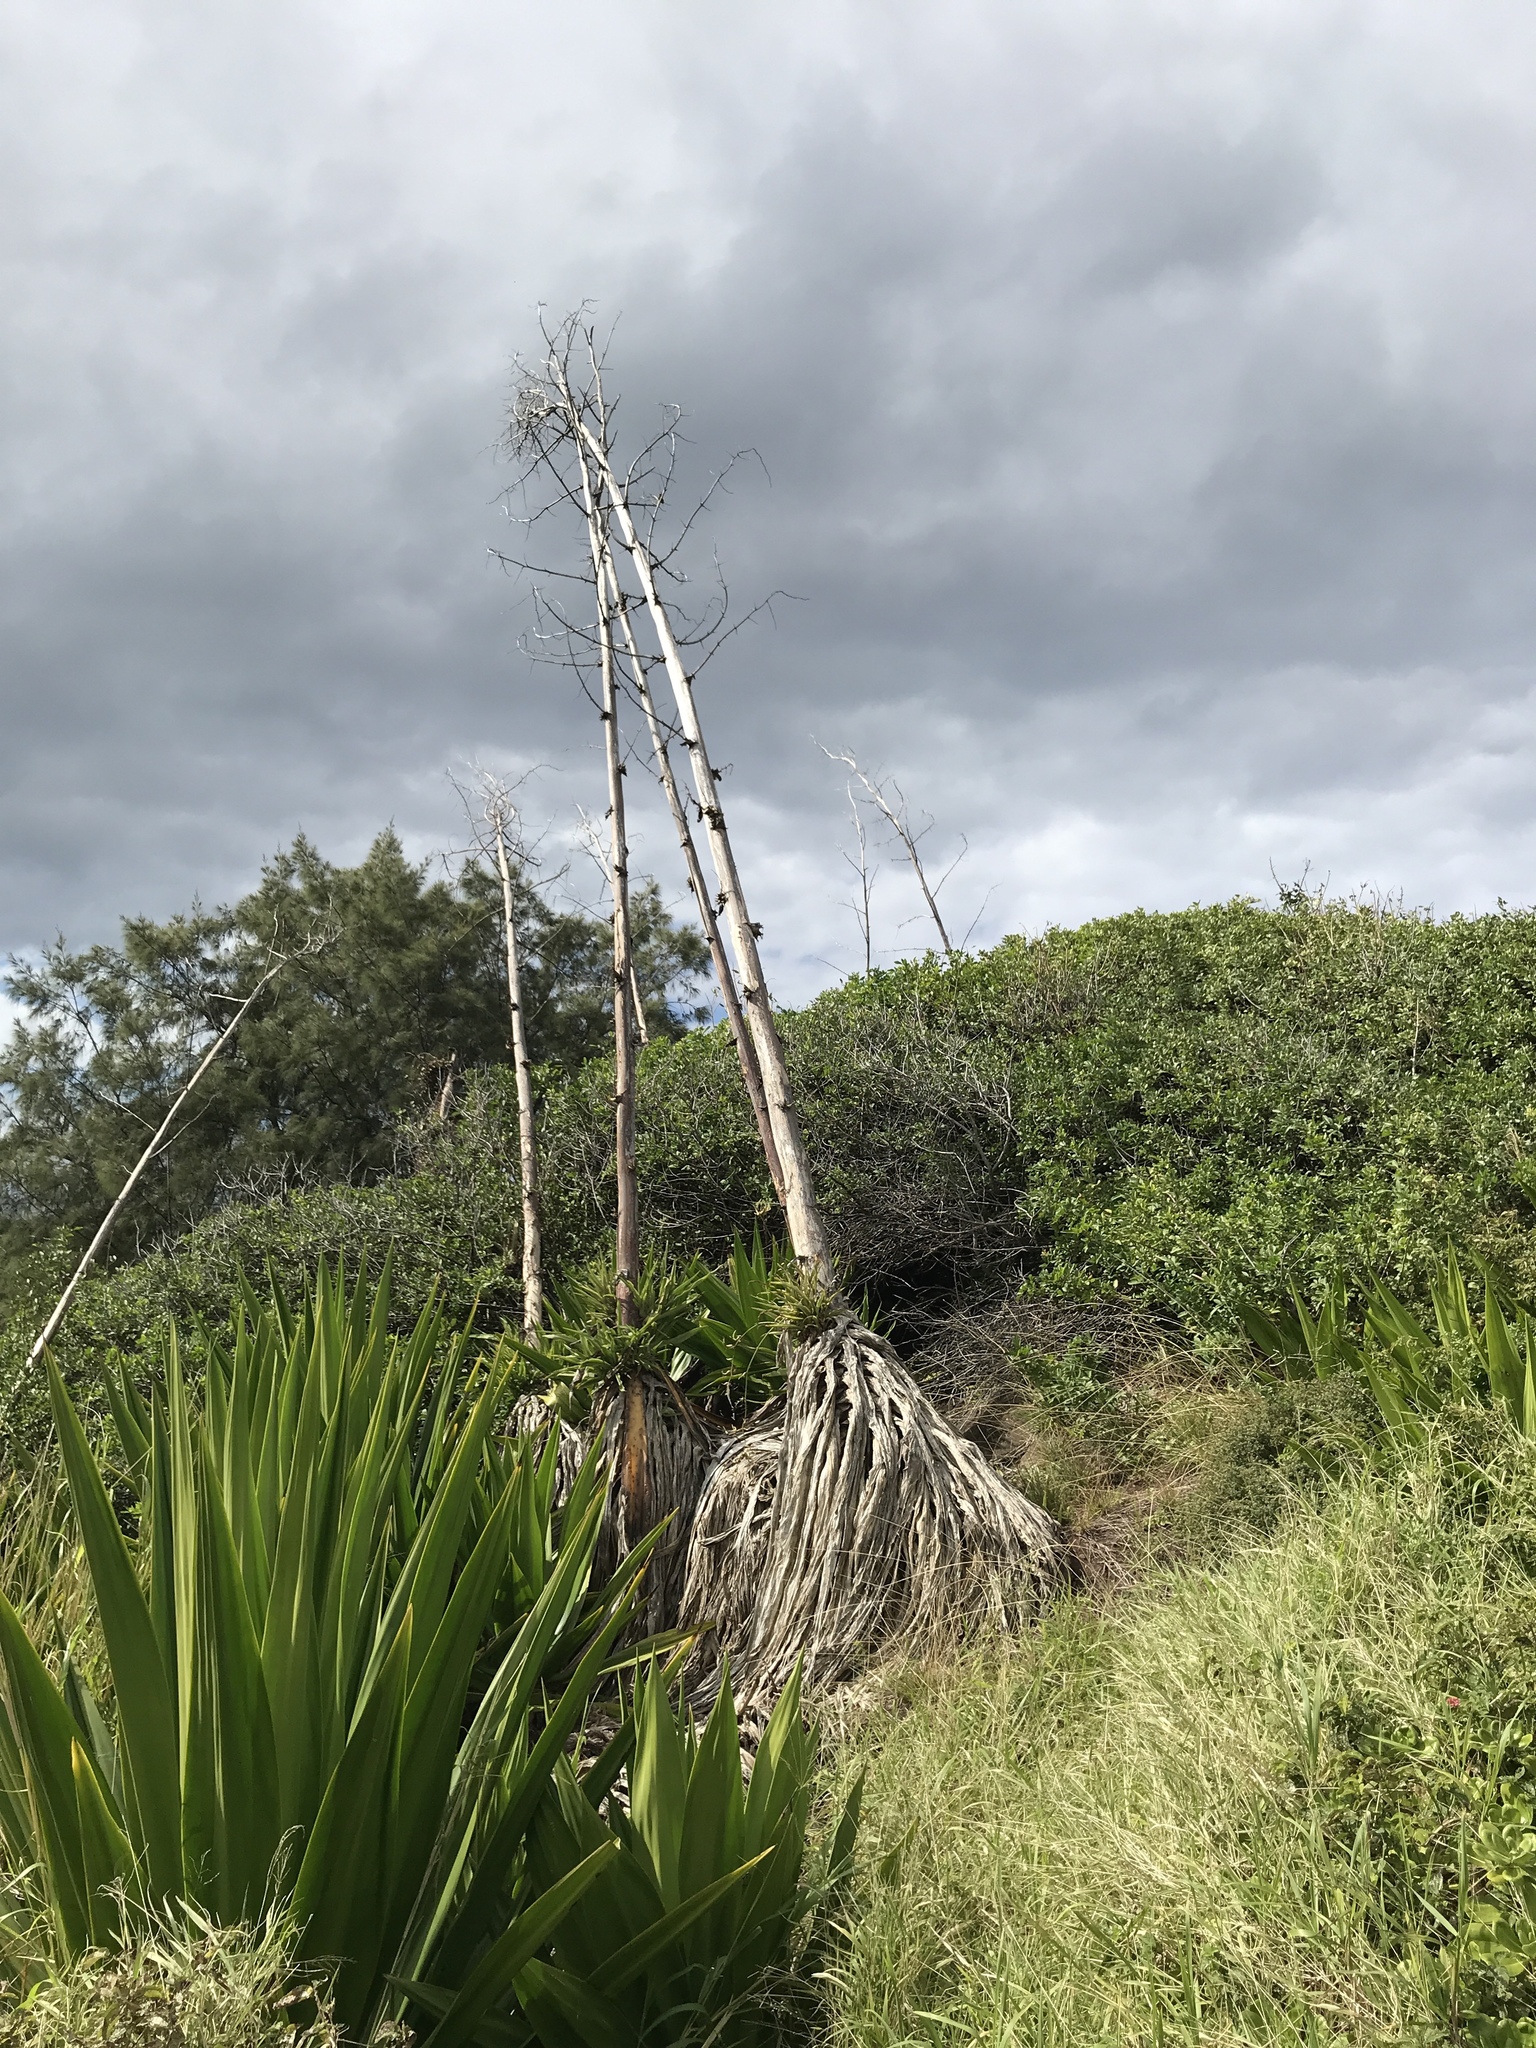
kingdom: Plantae
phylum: Tracheophyta
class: Liliopsida
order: Asparagales
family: Asparagaceae
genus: Furcraea
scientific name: Furcraea foetida
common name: Mauritius hemp
